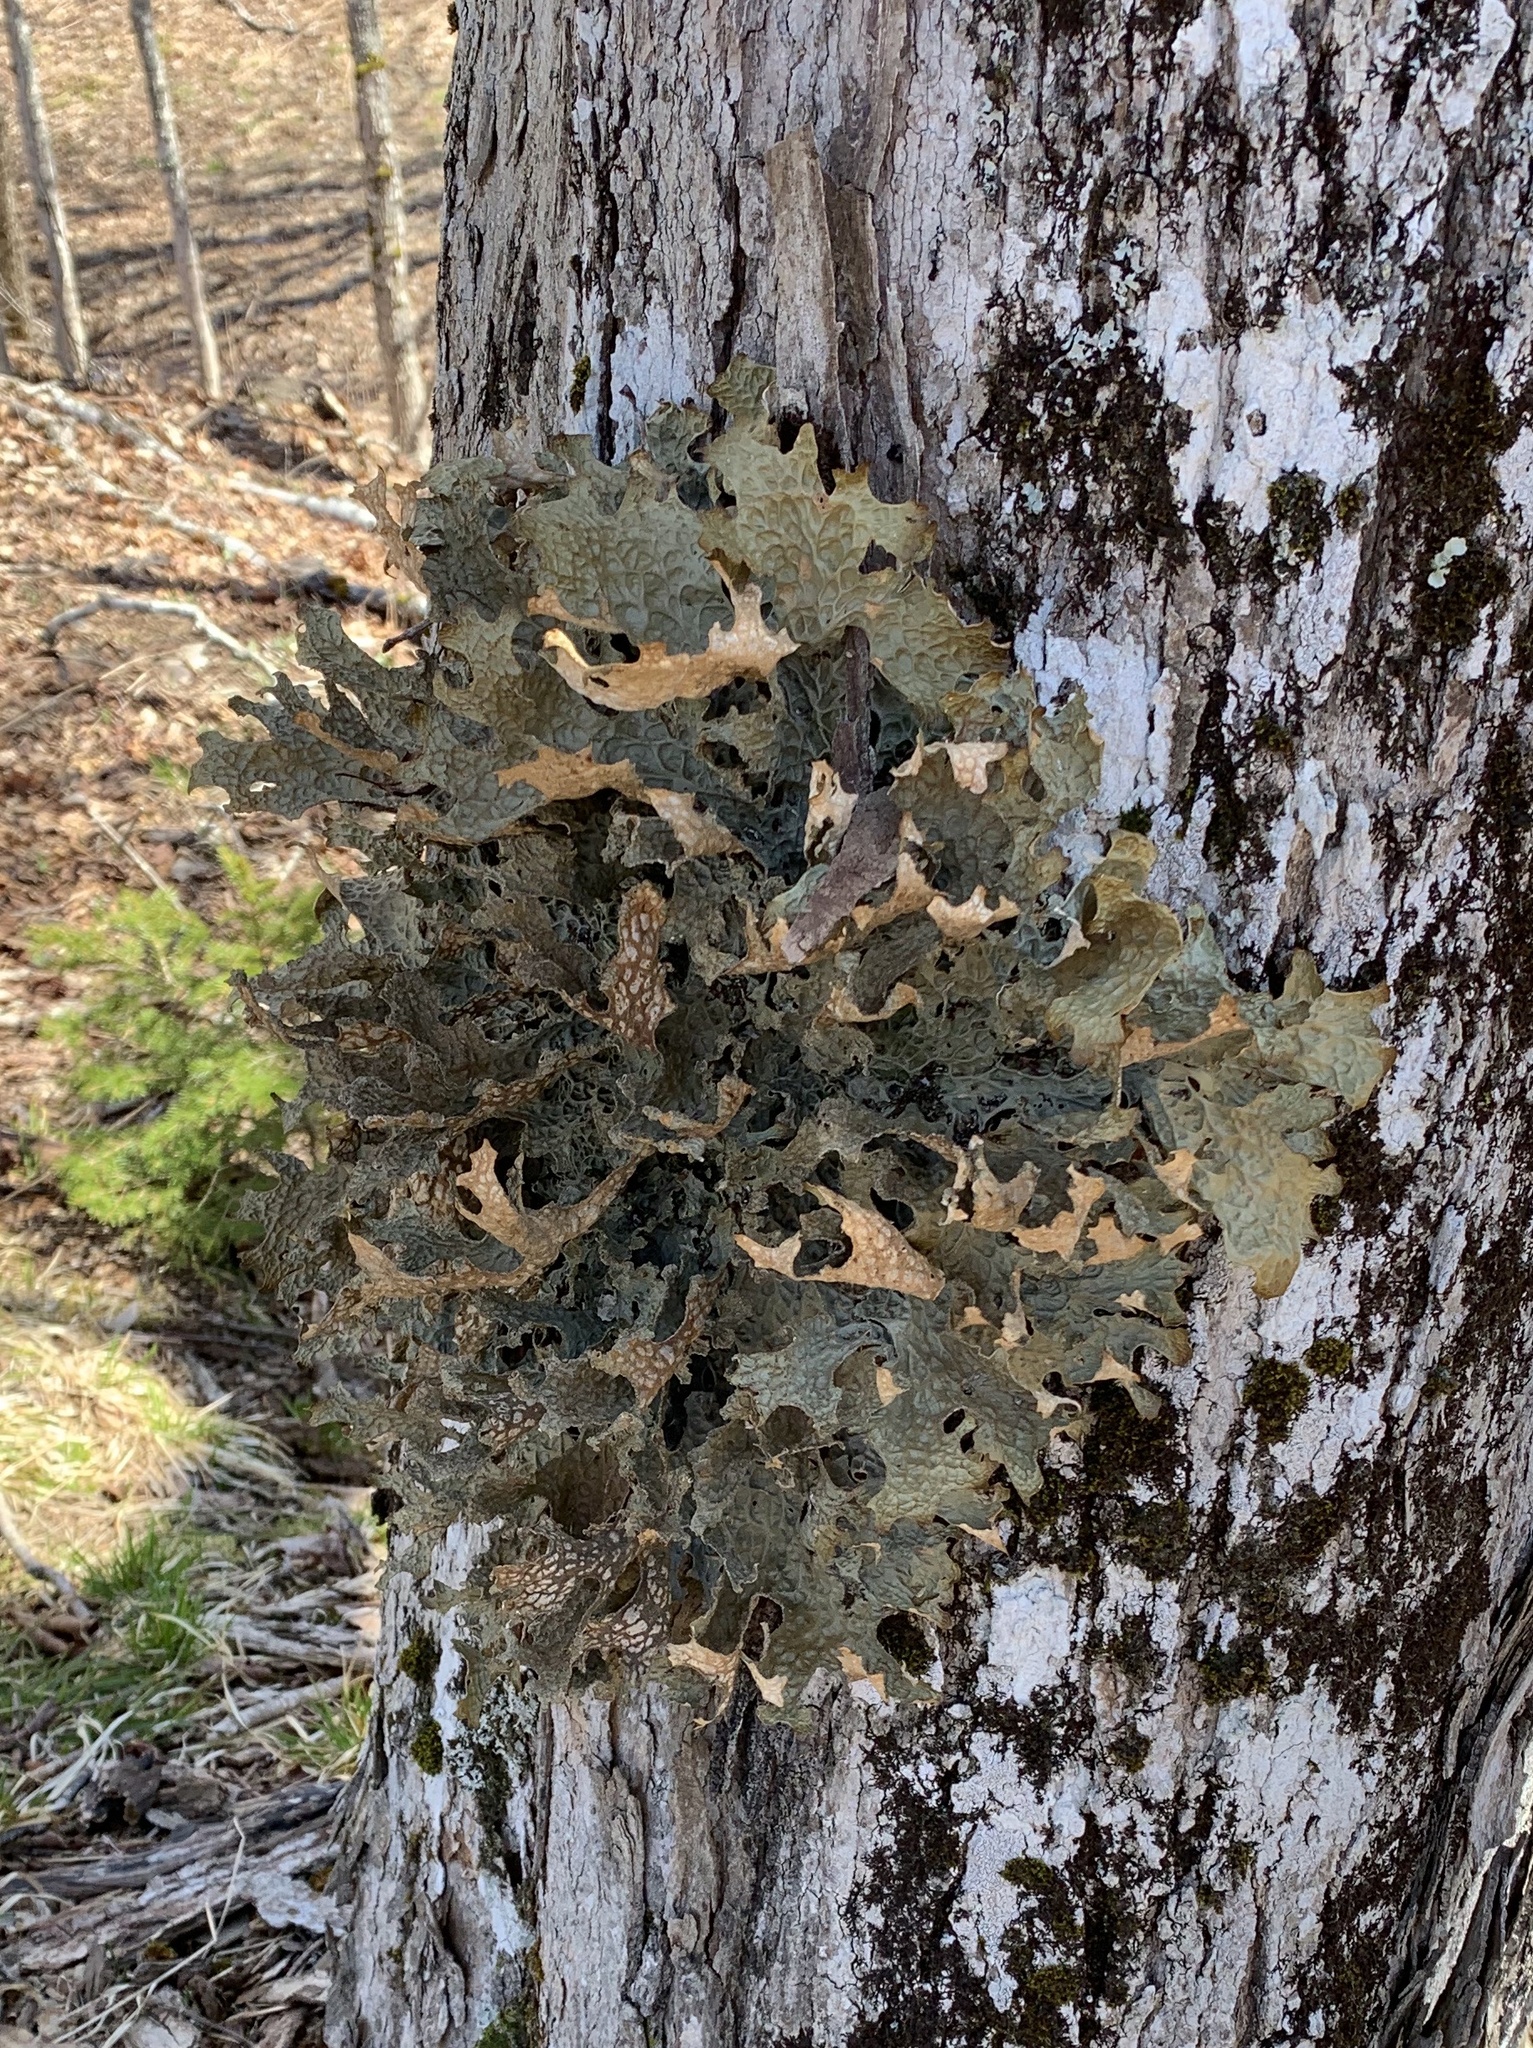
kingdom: Fungi
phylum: Ascomycota
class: Lecanoromycetes
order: Peltigerales
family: Lobariaceae
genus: Lobaria
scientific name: Lobaria pulmonaria
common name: Lungwort
